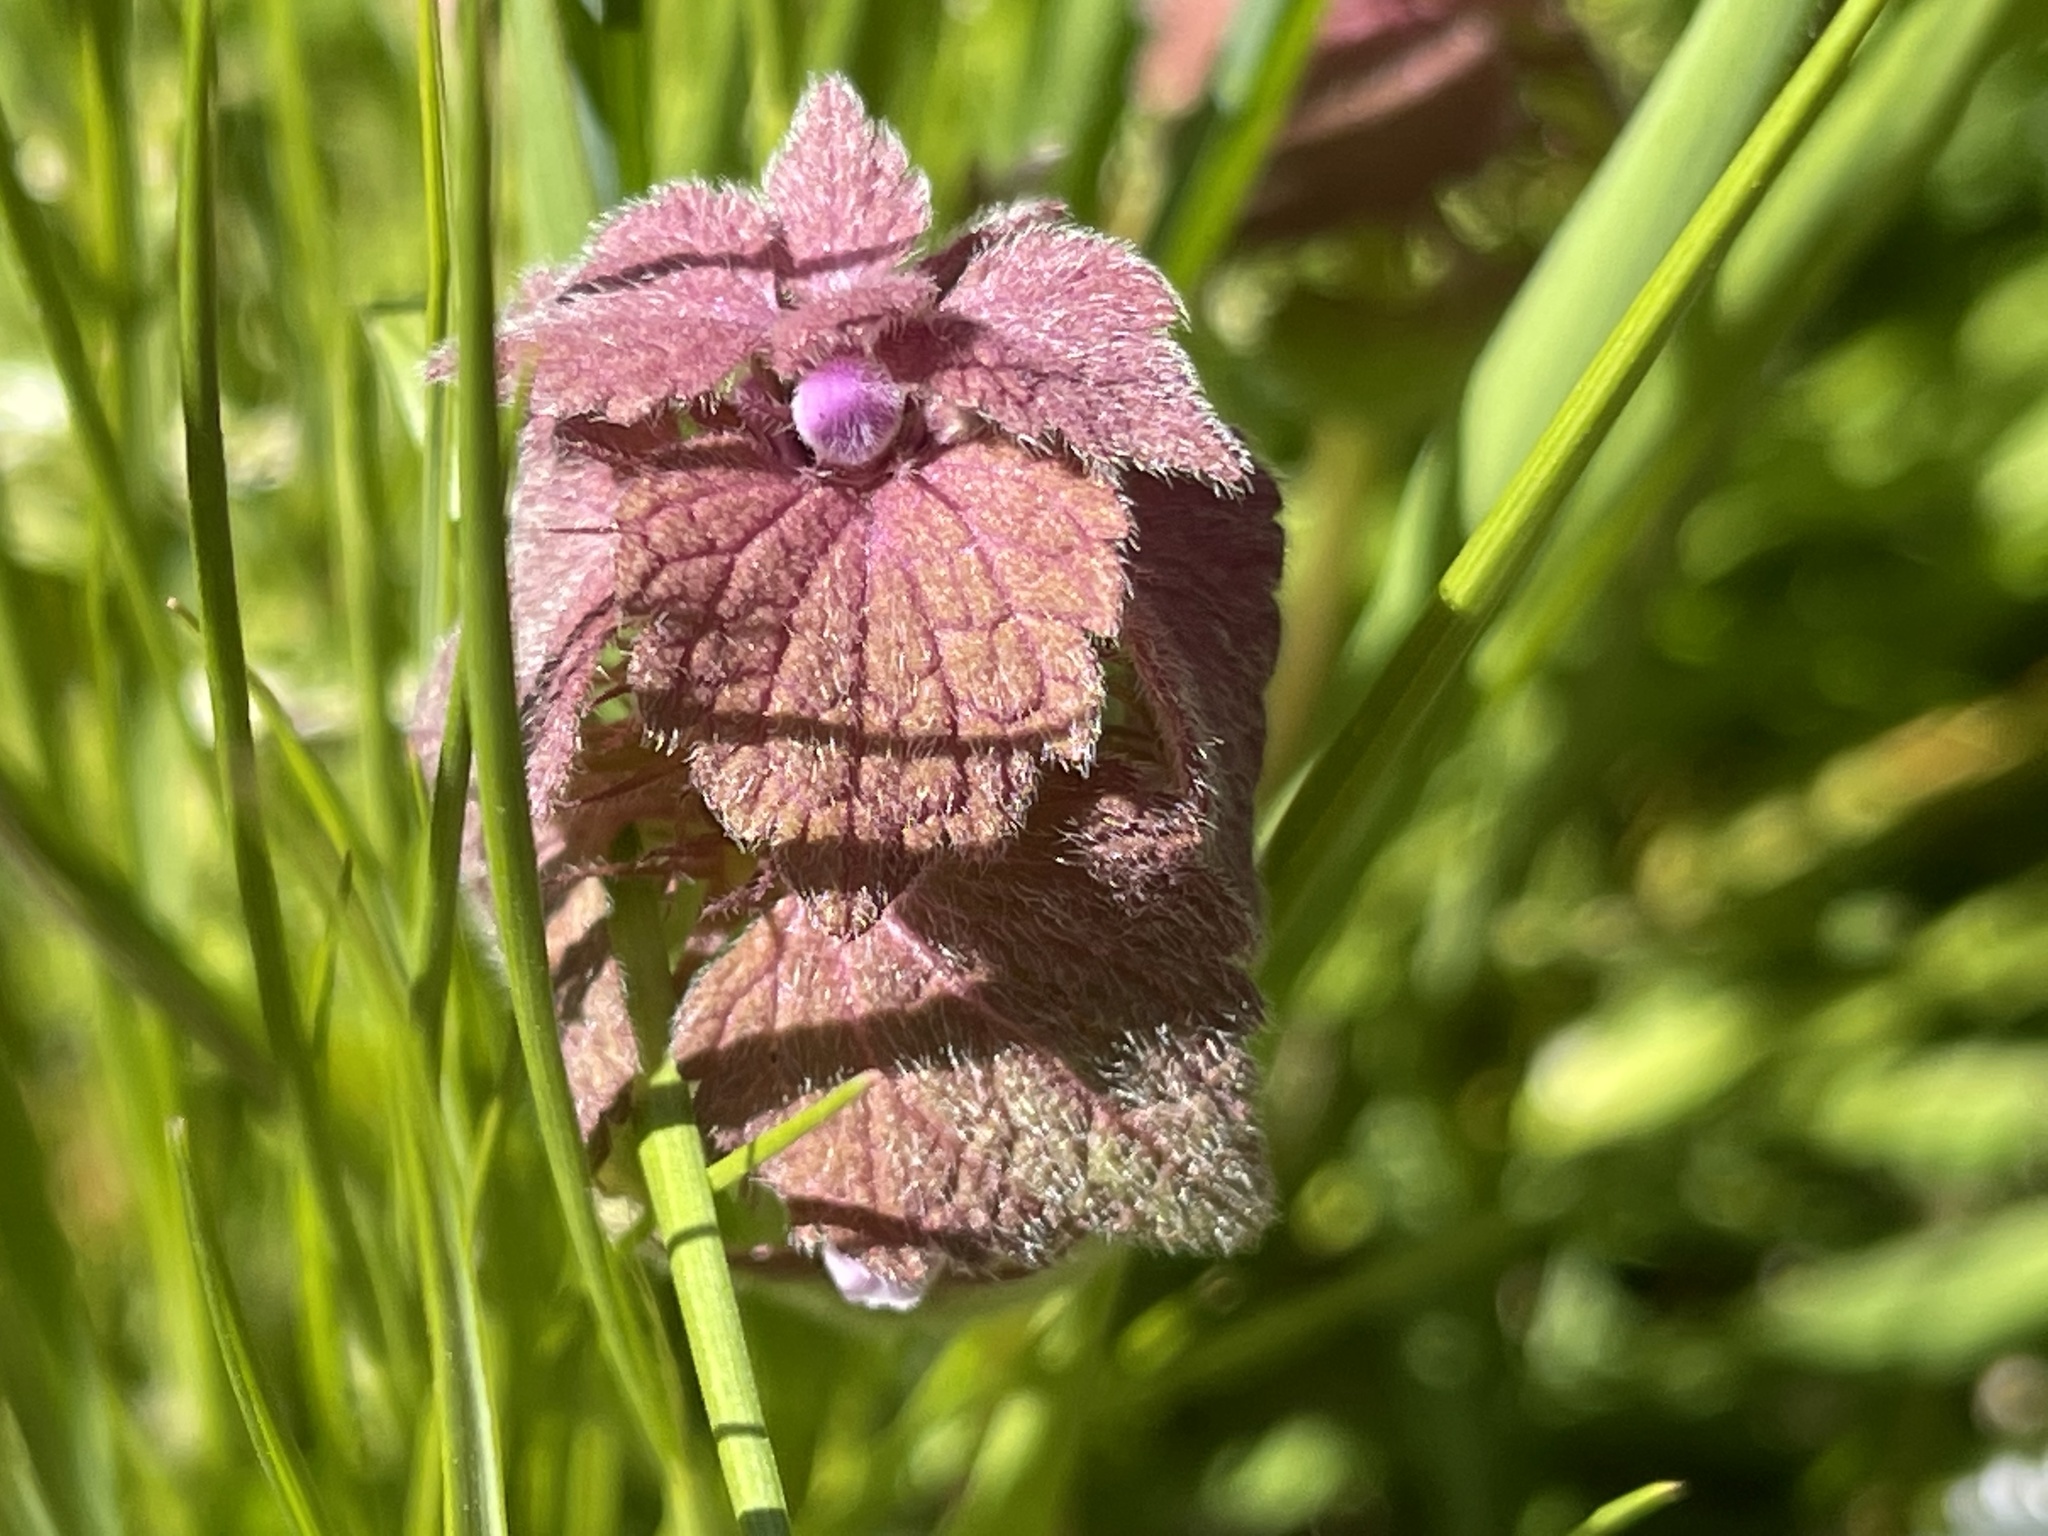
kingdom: Plantae
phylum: Tracheophyta
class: Magnoliopsida
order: Lamiales
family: Lamiaceae
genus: Lamium
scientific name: Lamium purpureum
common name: Red dead-nettle
